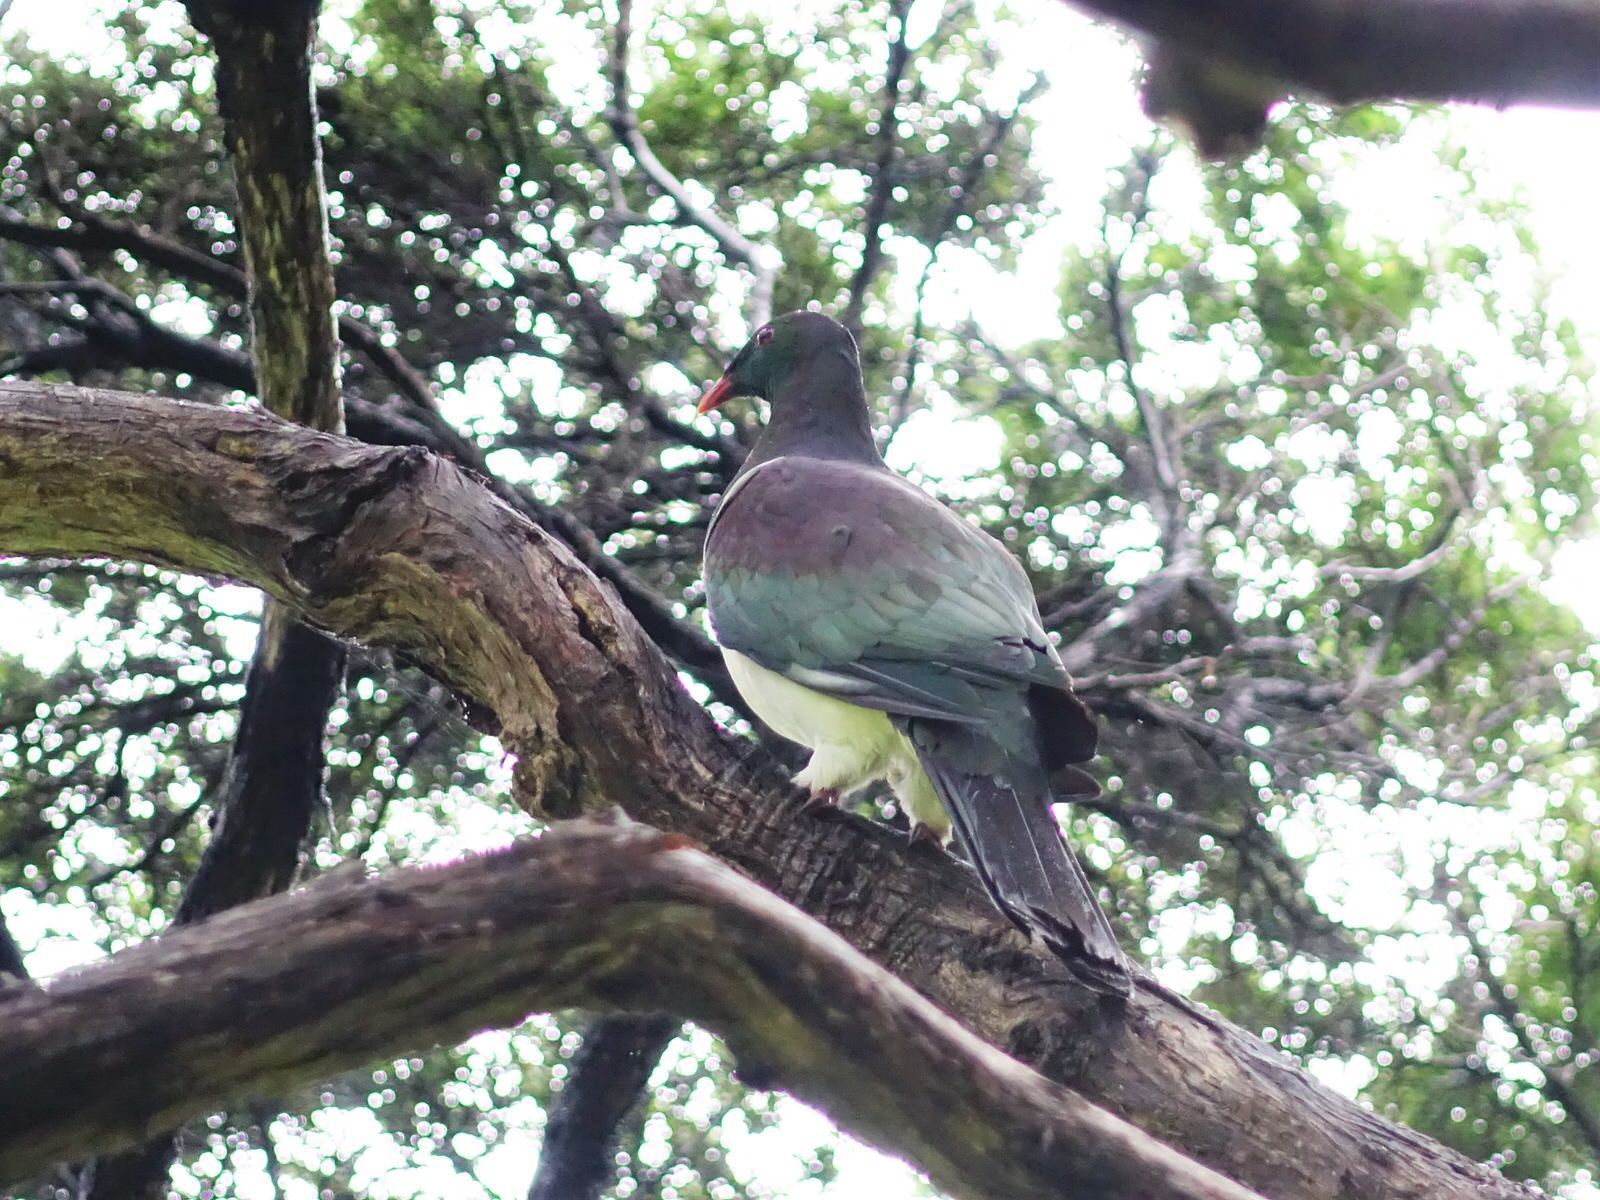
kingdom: Animalia
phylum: Chordata
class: Aves
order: Columbiformes
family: Columbidae
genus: Hemiphaga
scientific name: Hemiphaga novaeseelandiae
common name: New zealand pigeon
